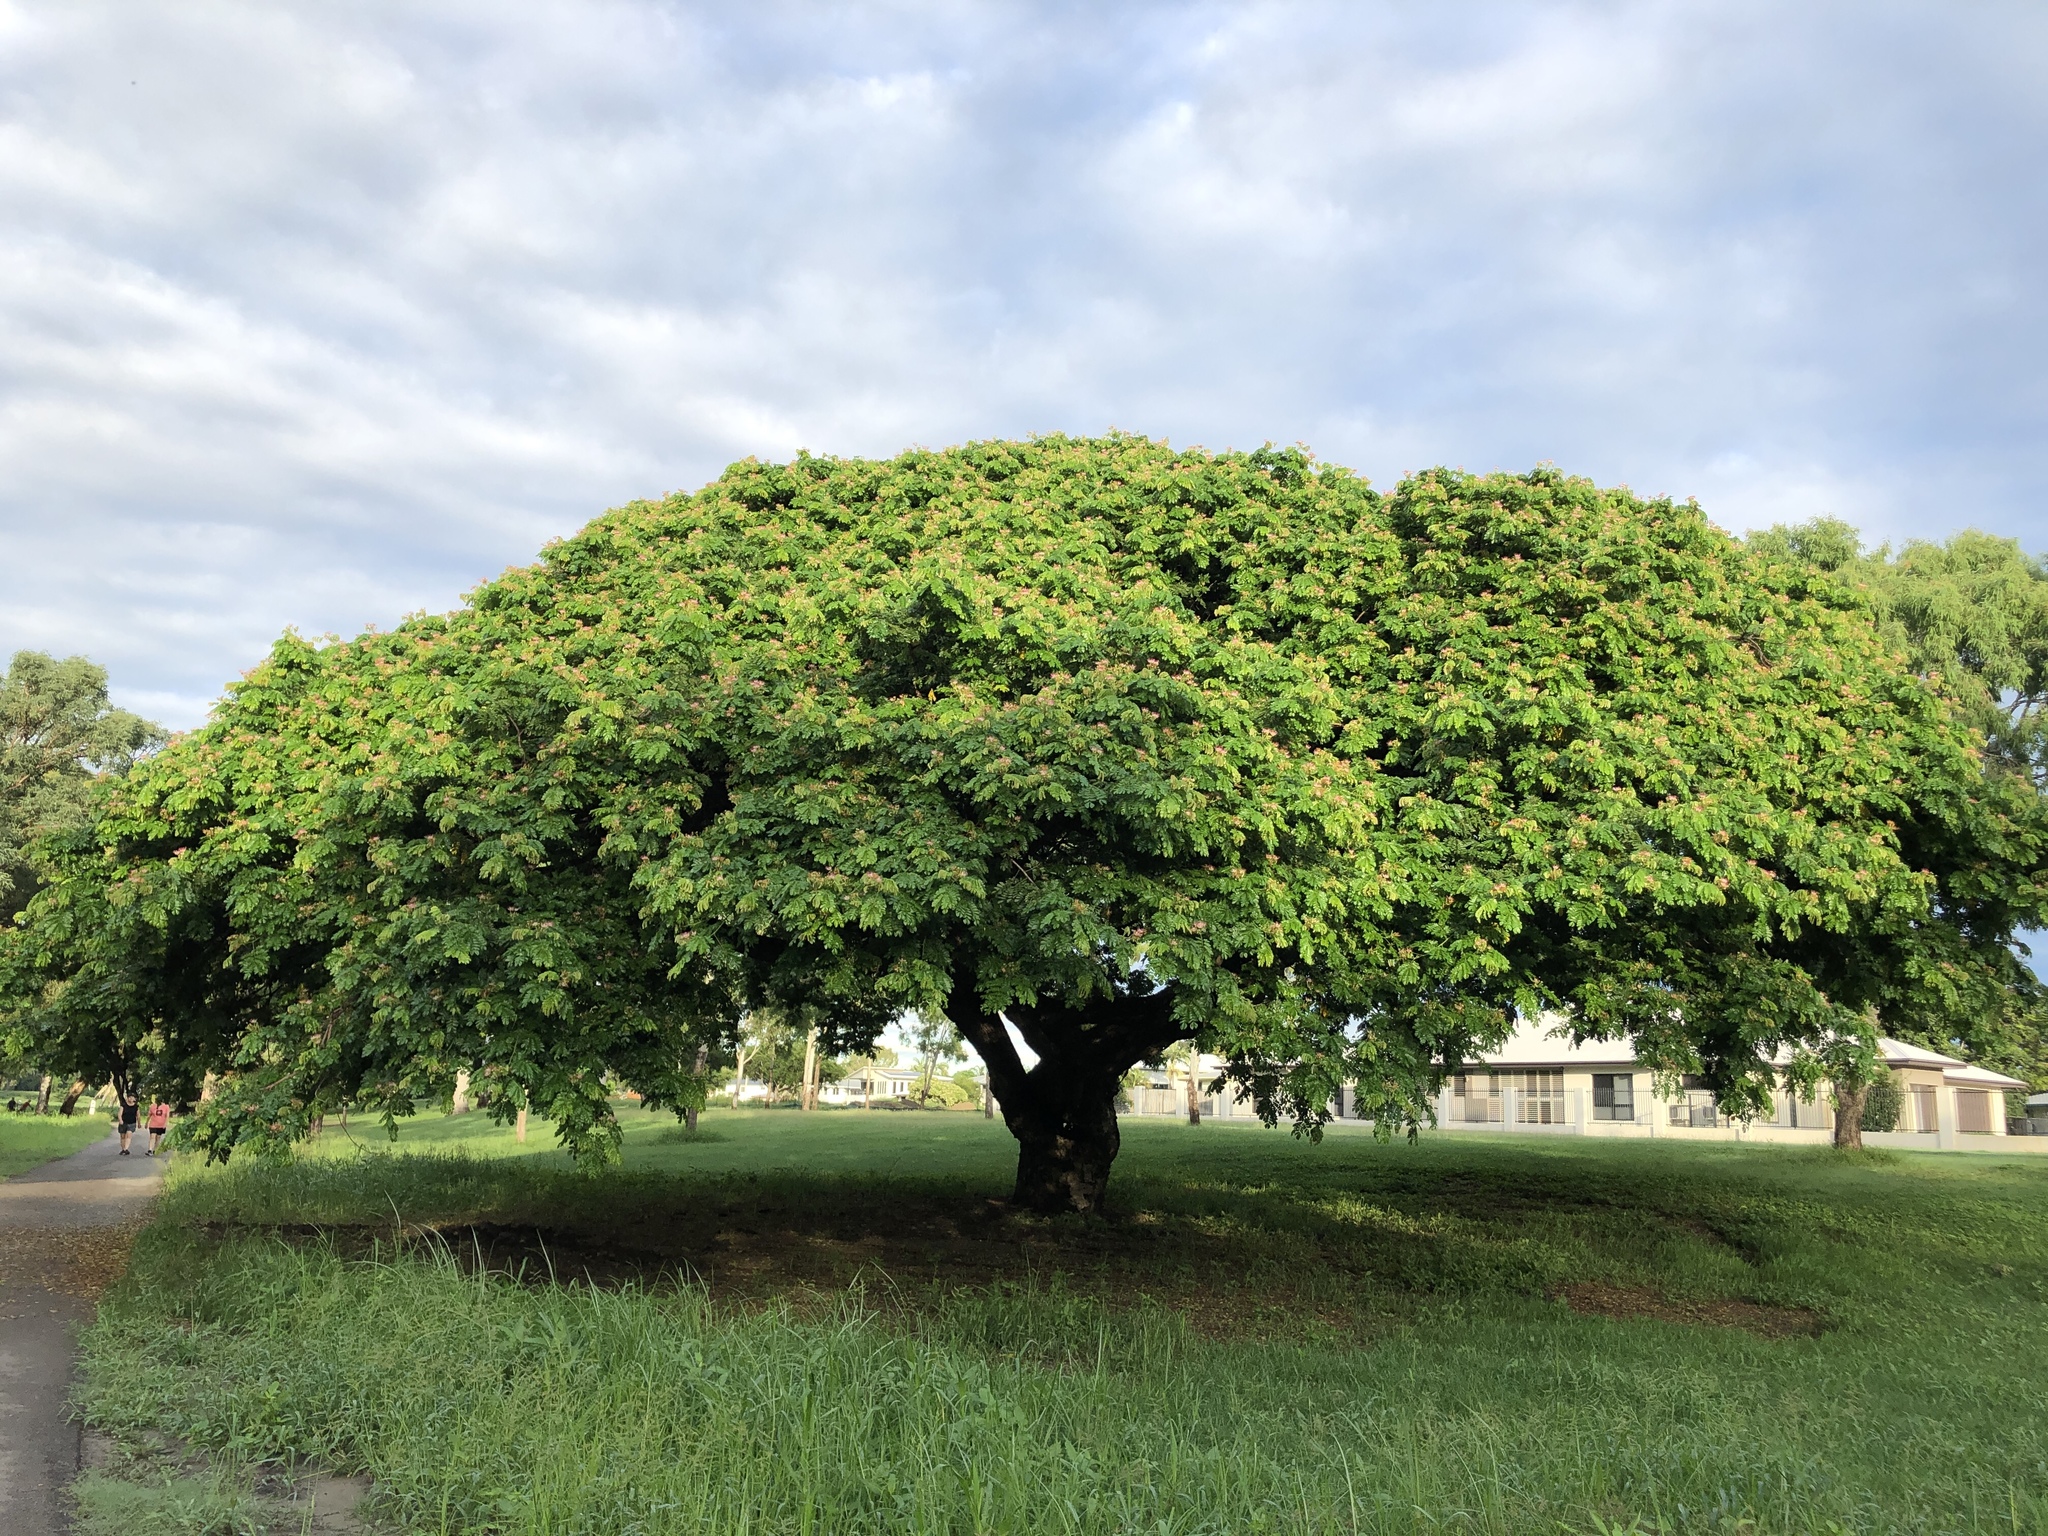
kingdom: Plantae
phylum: Tracheophyta
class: Magnoliopsida
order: Fabales
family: Fabaceae
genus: Samanea
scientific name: Samanea saman
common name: Raintree
